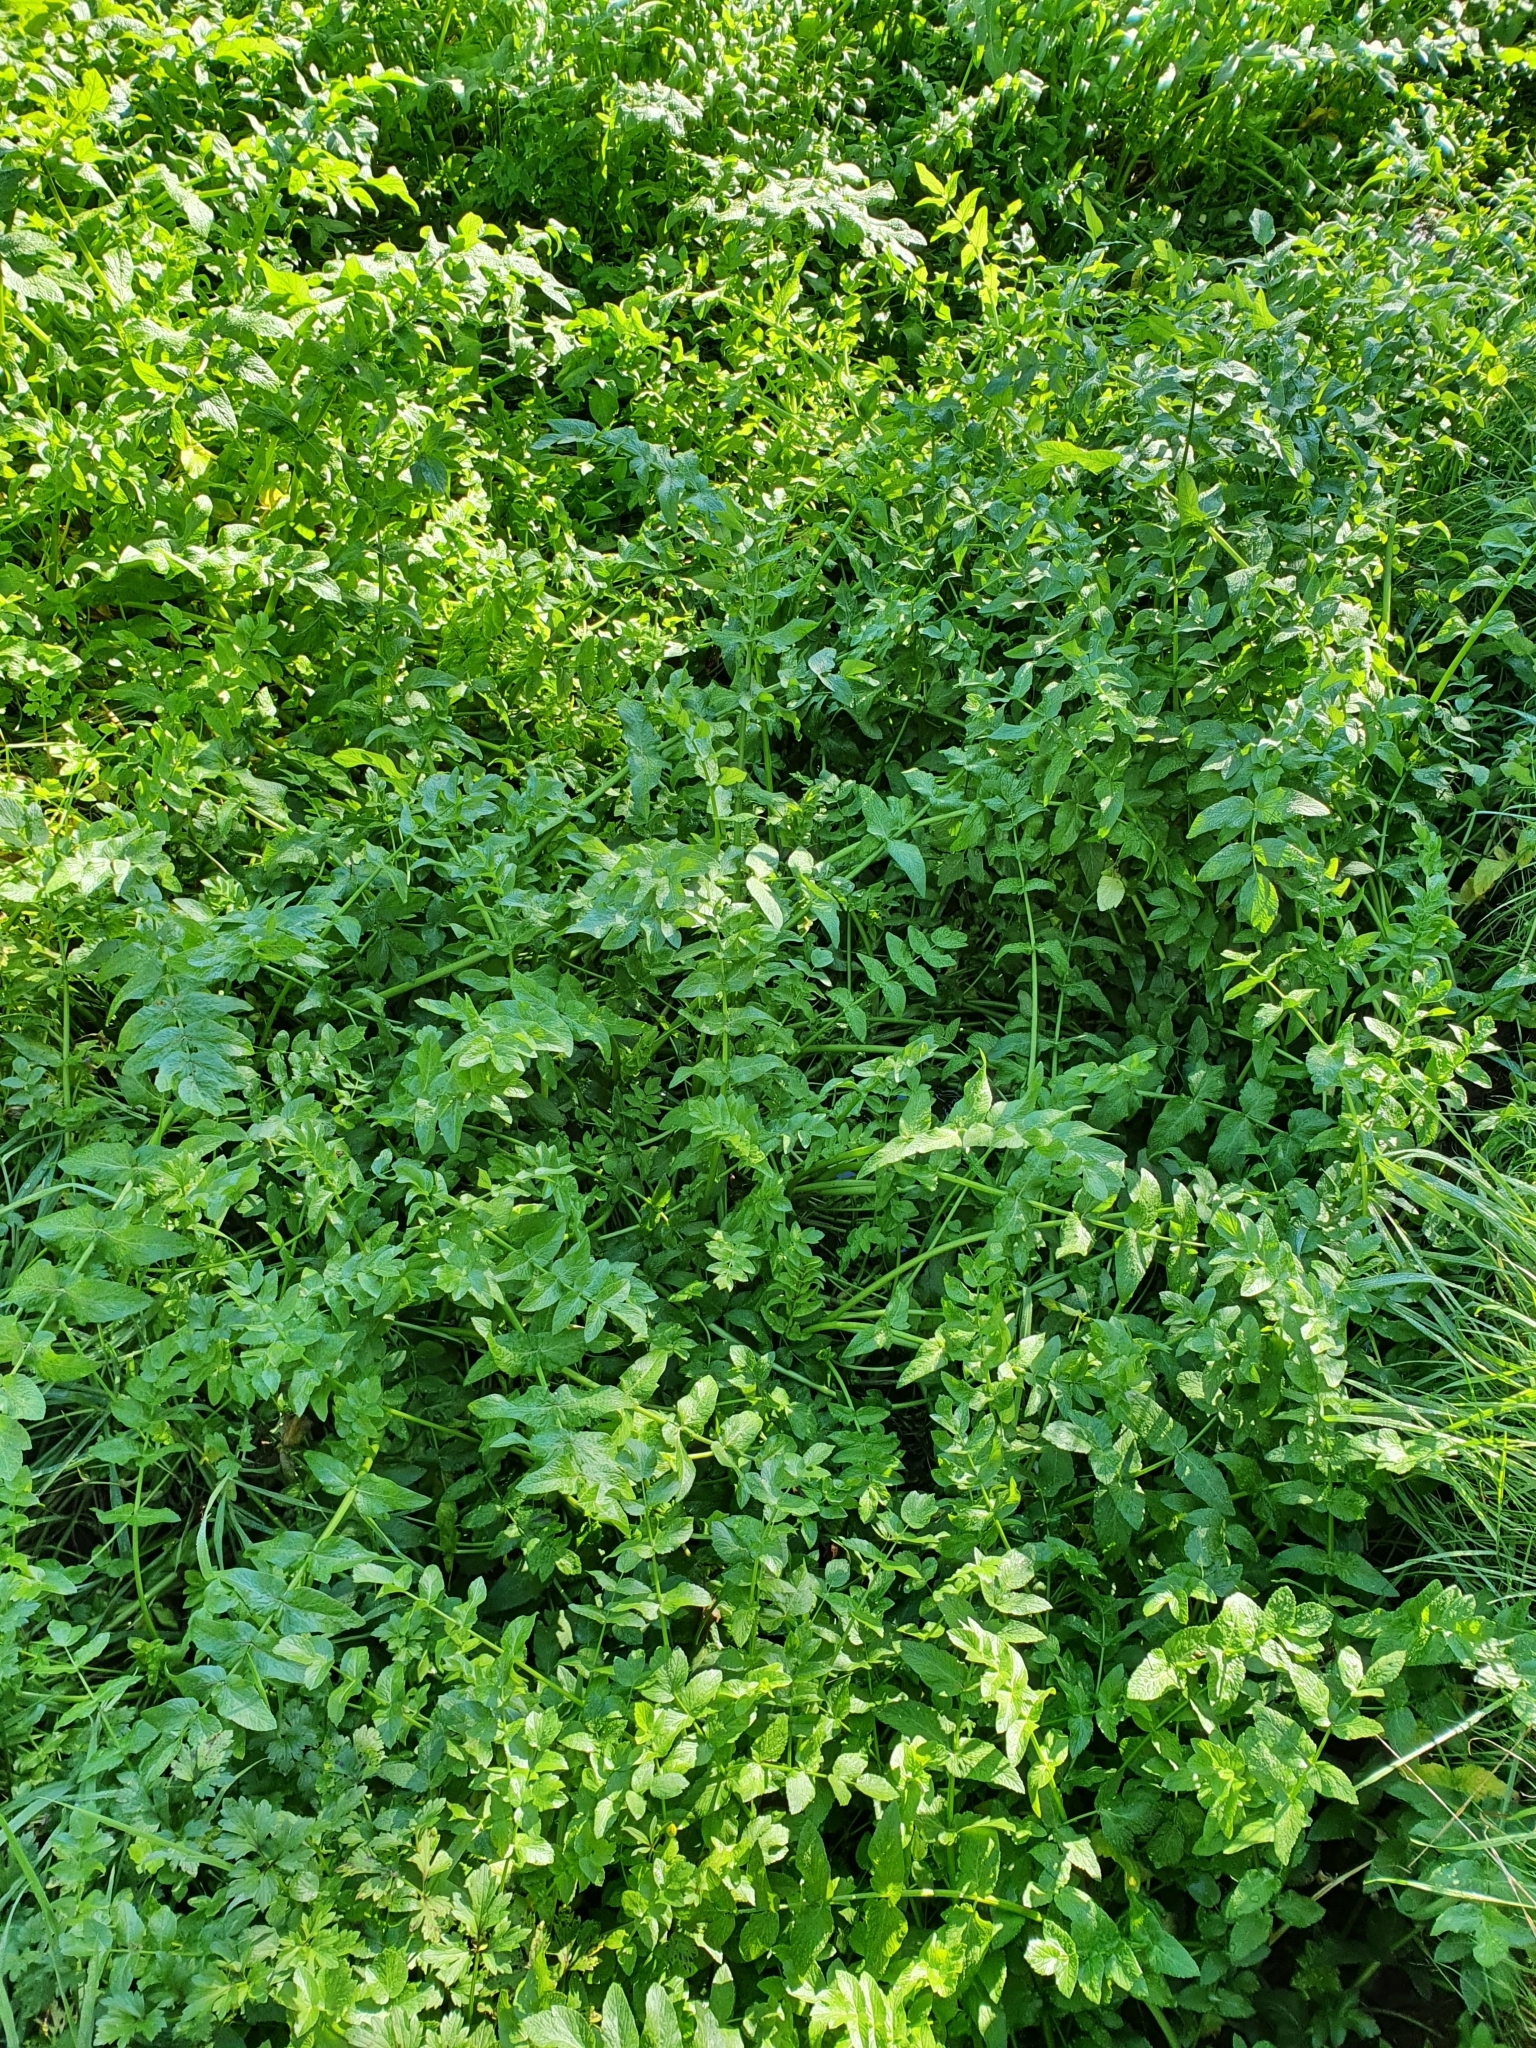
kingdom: Plantae
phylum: Tracheophyta
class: Magnoliopsida
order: Apiales
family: Apiaceae
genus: Helosciadium
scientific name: Helosciadium nodiflorum
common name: Fool's-watercress
